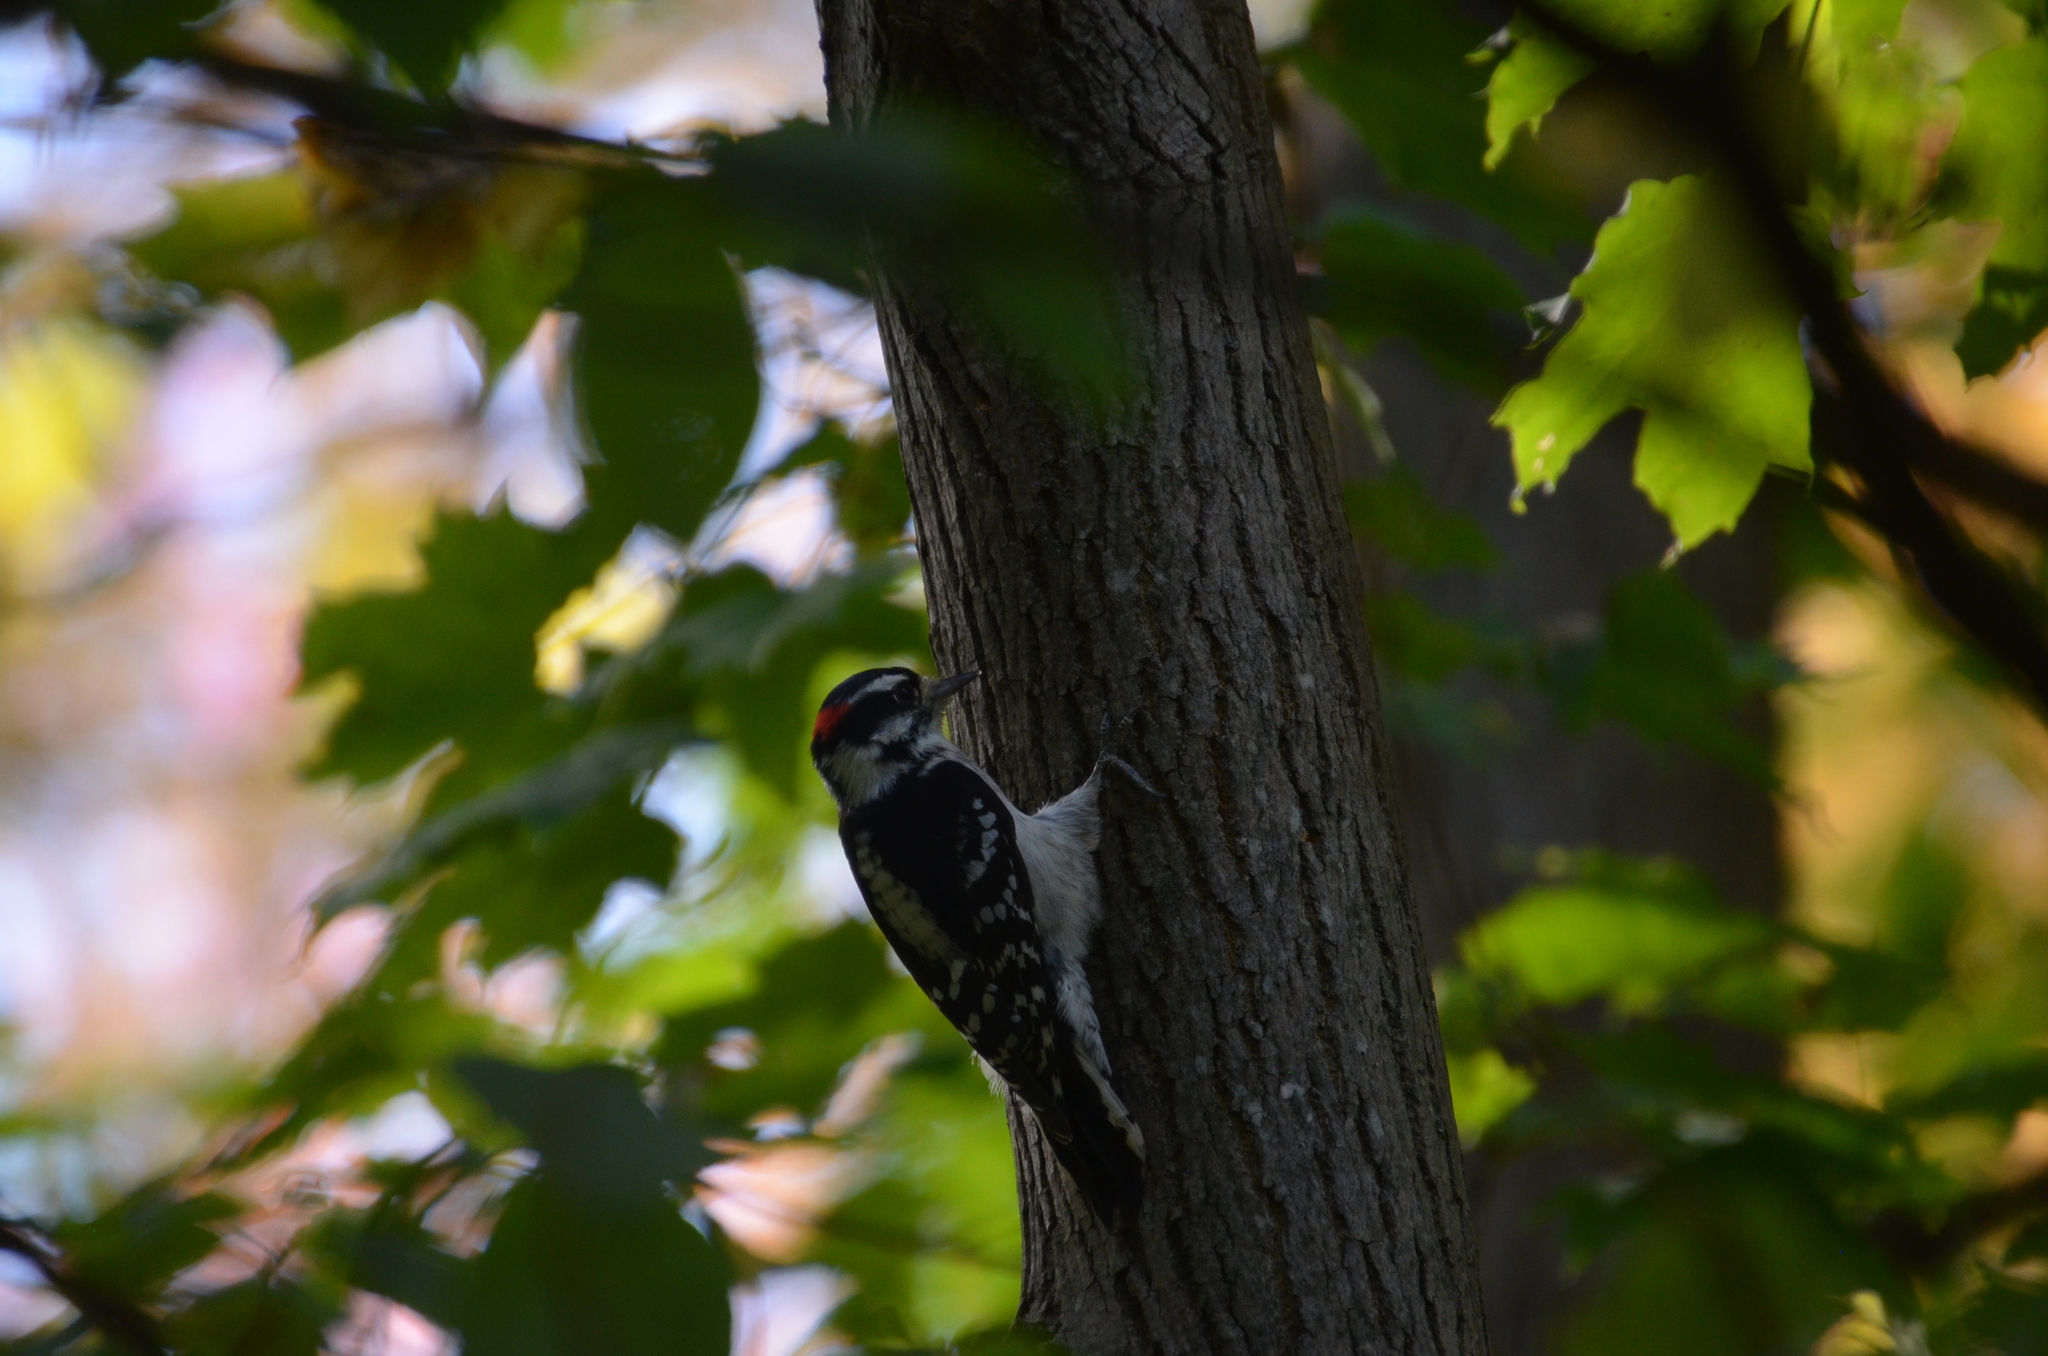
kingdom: Animalia
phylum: Chordata
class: Aves
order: Piciformes
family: Picidae
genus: Dryobates
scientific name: Dryobates pubescens
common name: Downy woodpecker
